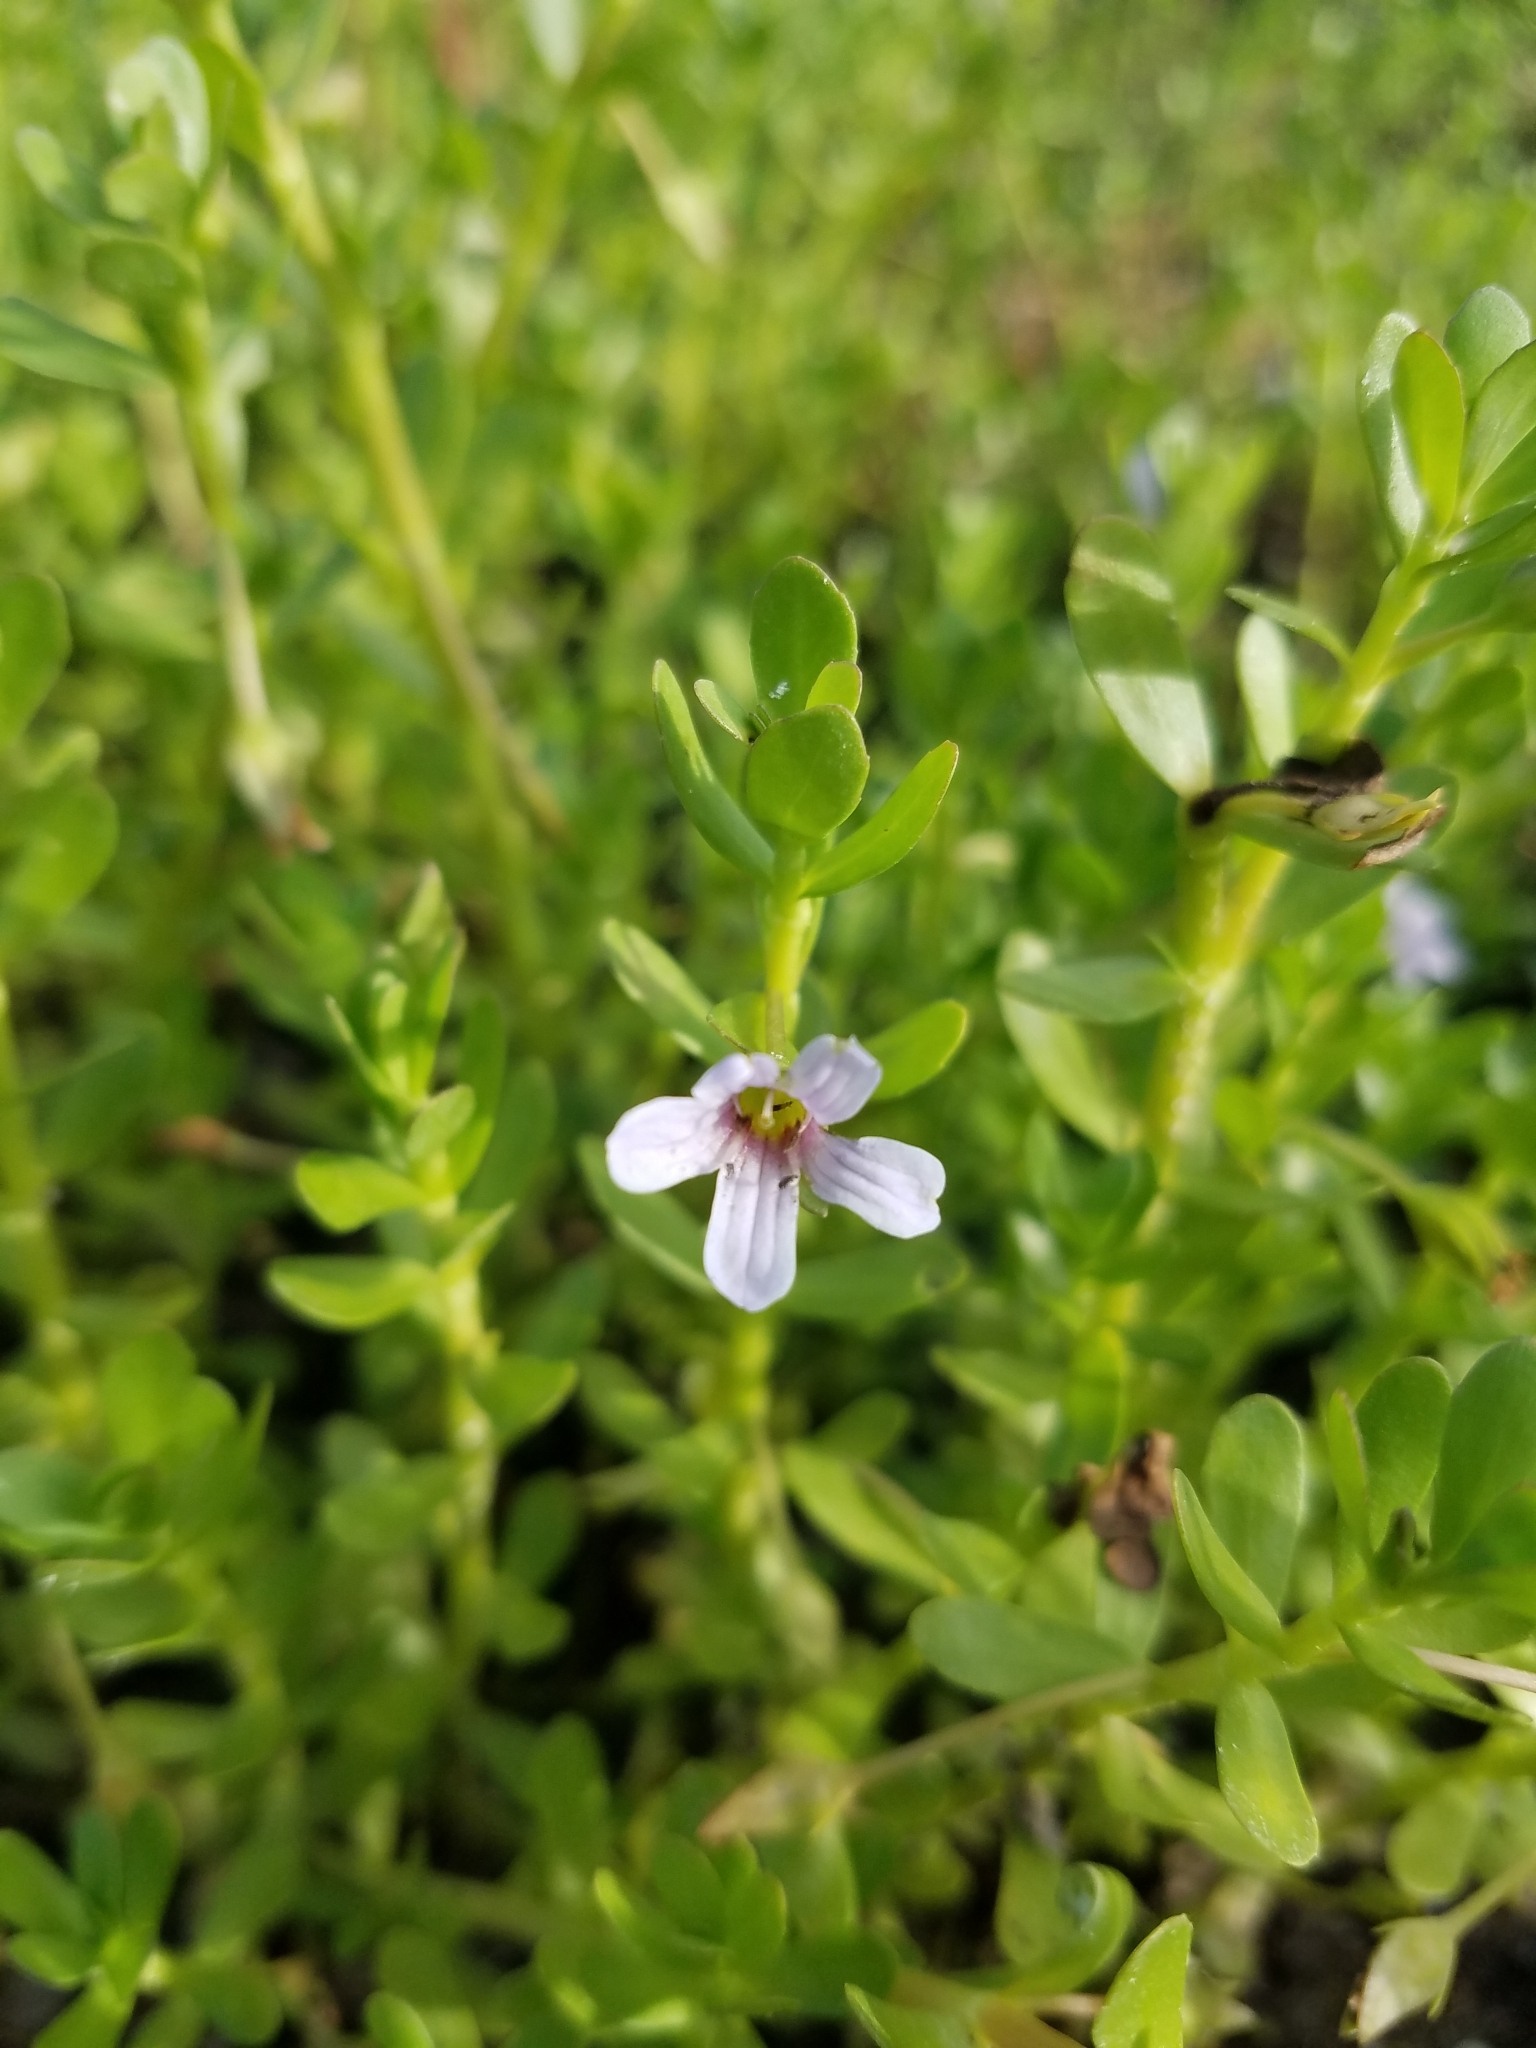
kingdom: Plantae
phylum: Tracheophyta
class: Magnoliopsida
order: Lamiales
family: Plantaginaceae
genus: Bacopa
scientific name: Bacopa monnieri
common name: Indian-pennywort
